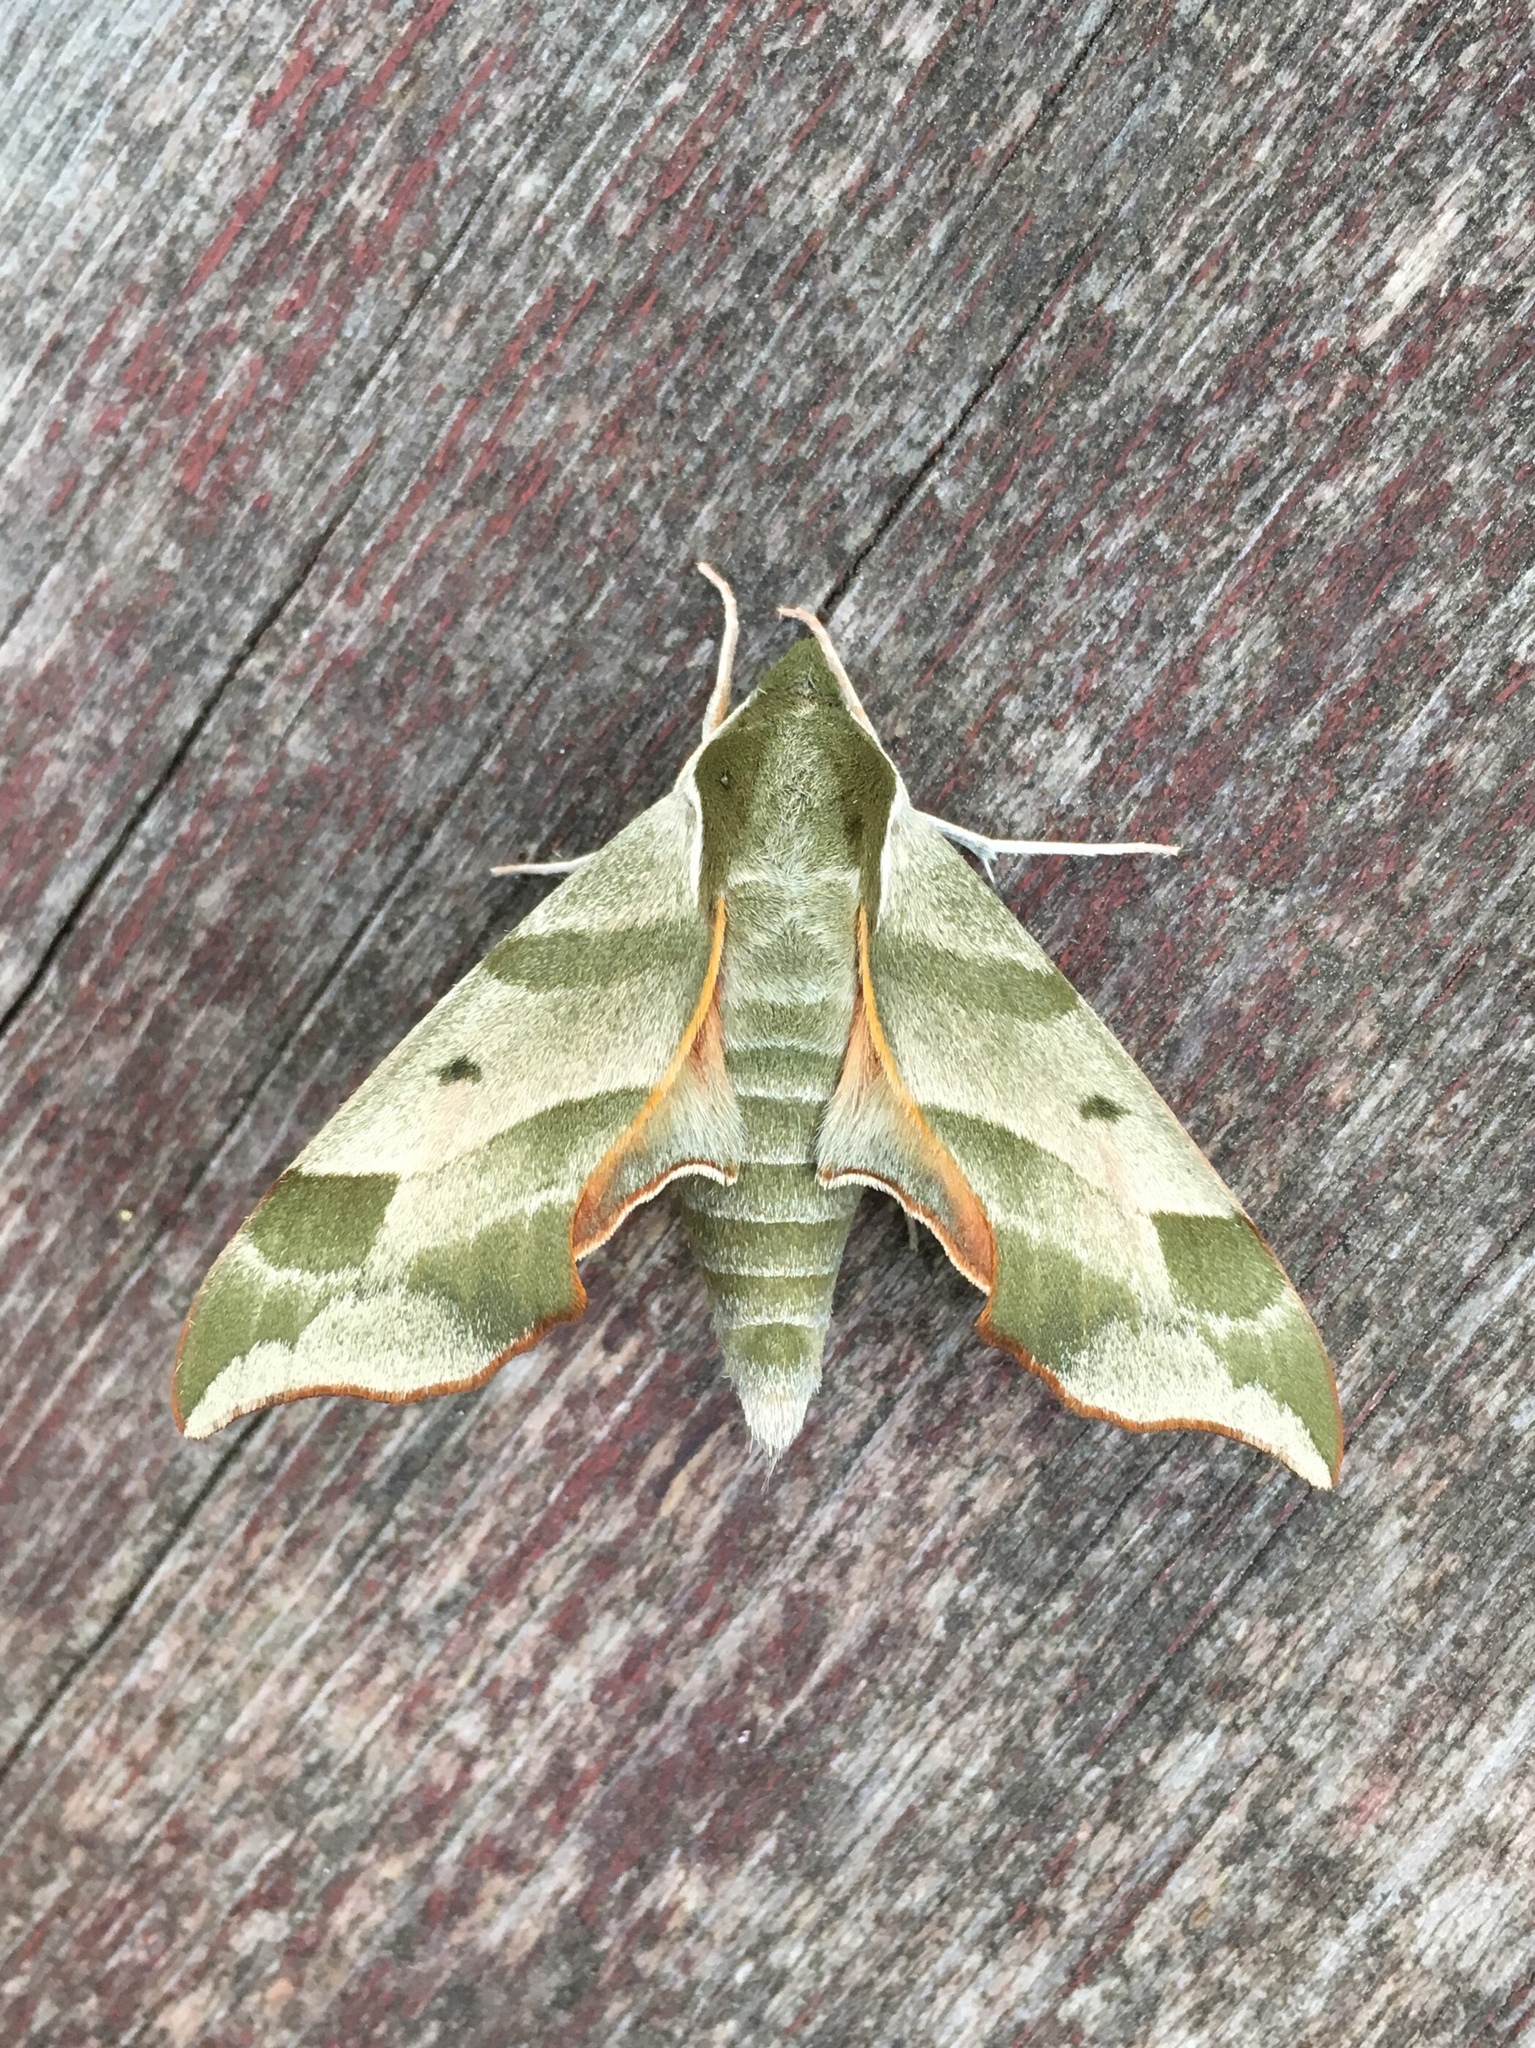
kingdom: Animalia
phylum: Arthropoda
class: Insecta
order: Lepidoptera
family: Sphingidae
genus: Darapsa
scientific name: Darapsa myron
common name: Hog sphinx
